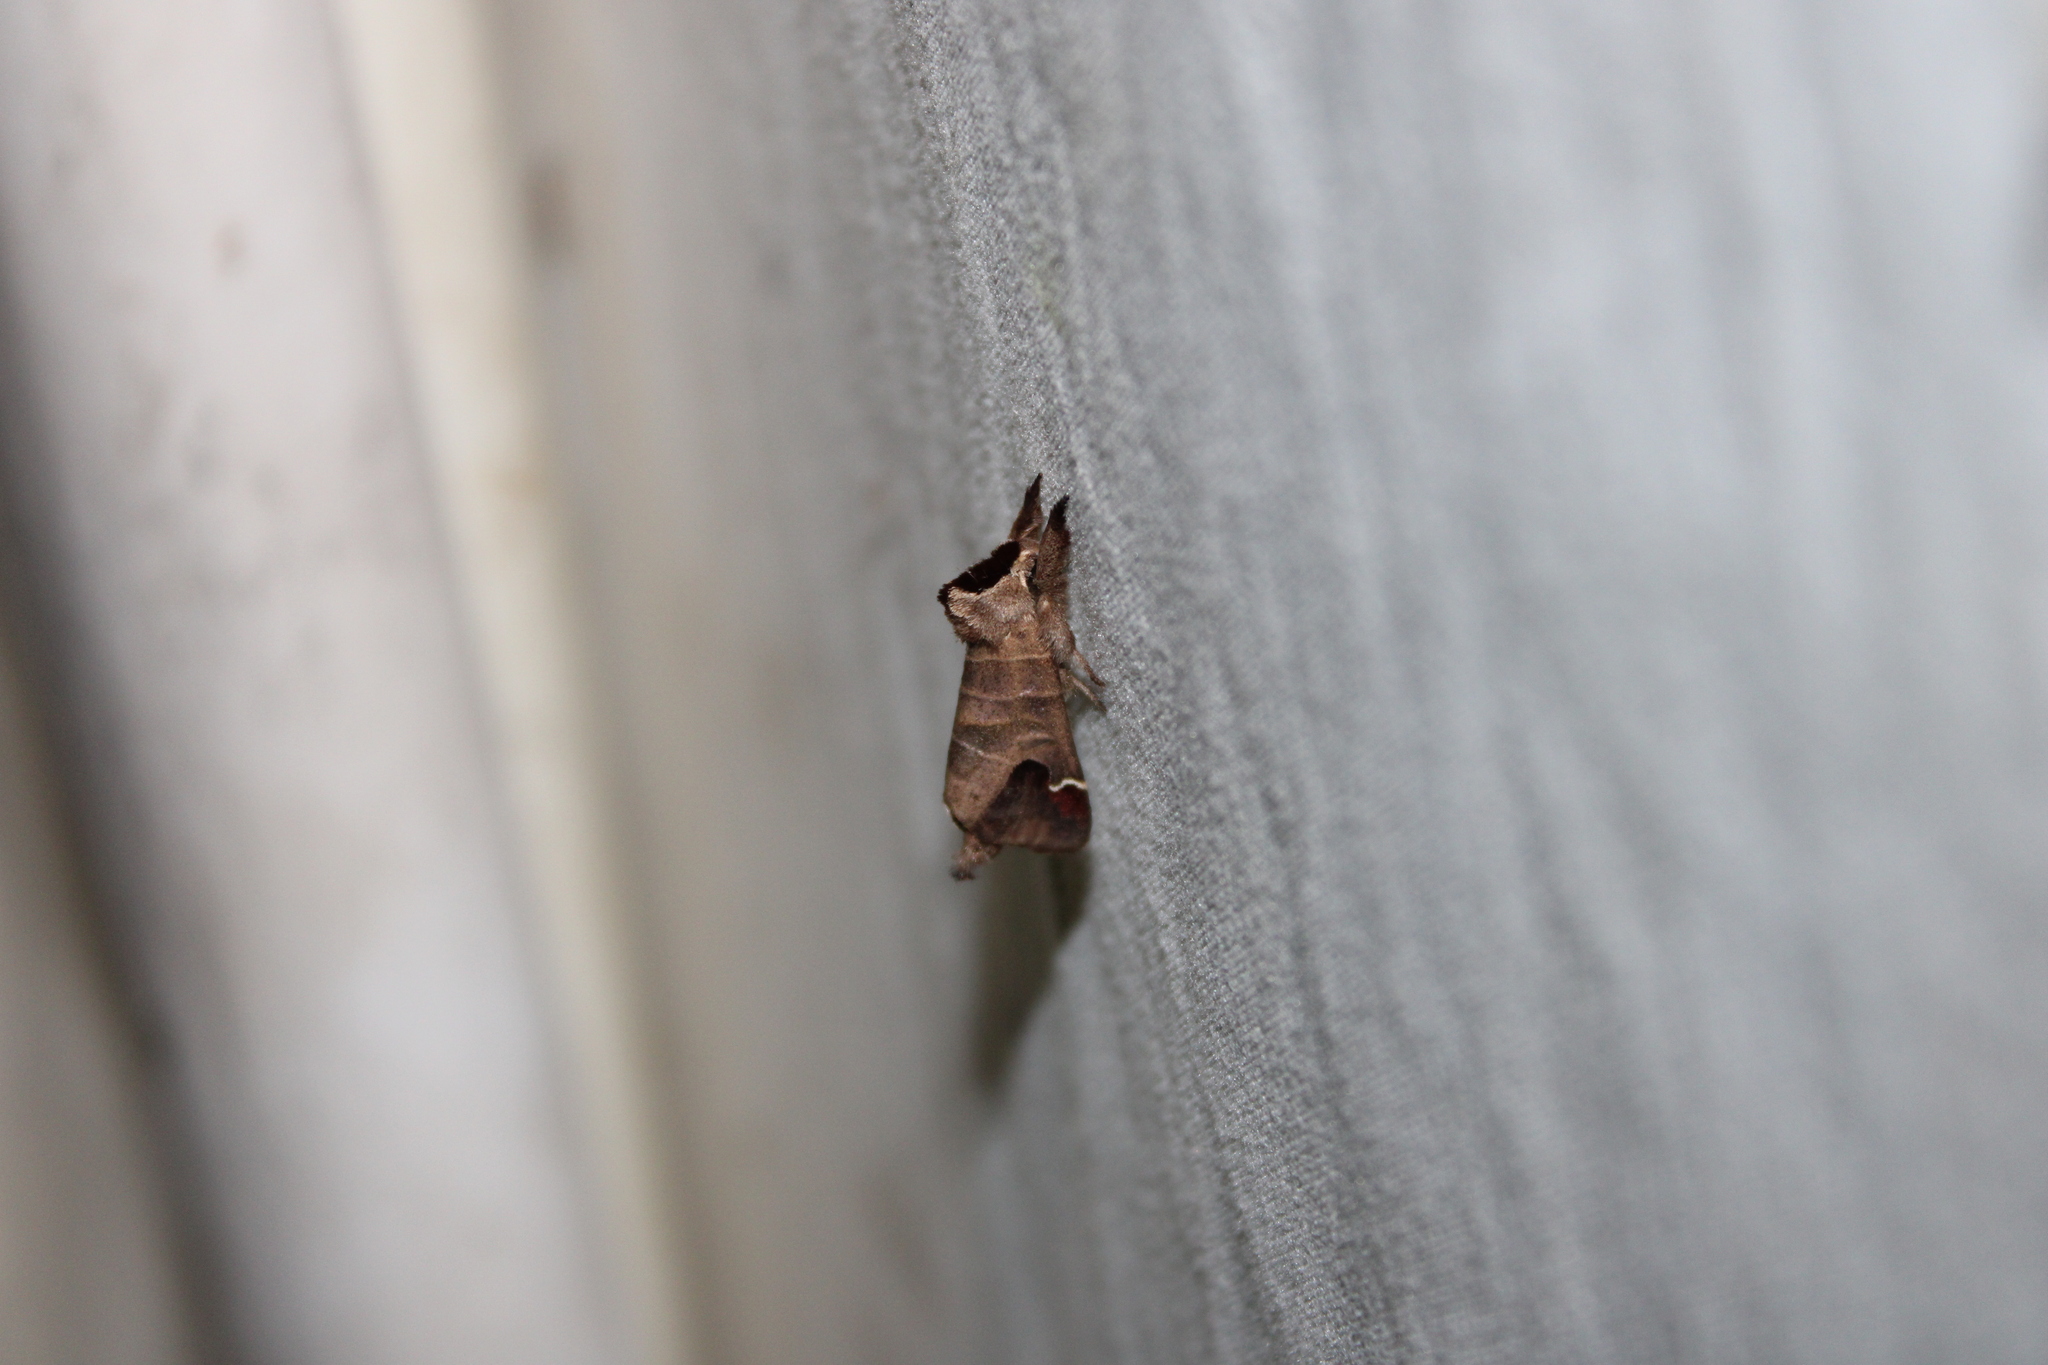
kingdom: Animalia
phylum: Arthropoda
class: Insecta
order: Lepidoptera
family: Notodontidae
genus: Clostera
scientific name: Clostera albosigma
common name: Sigmoid prominent
